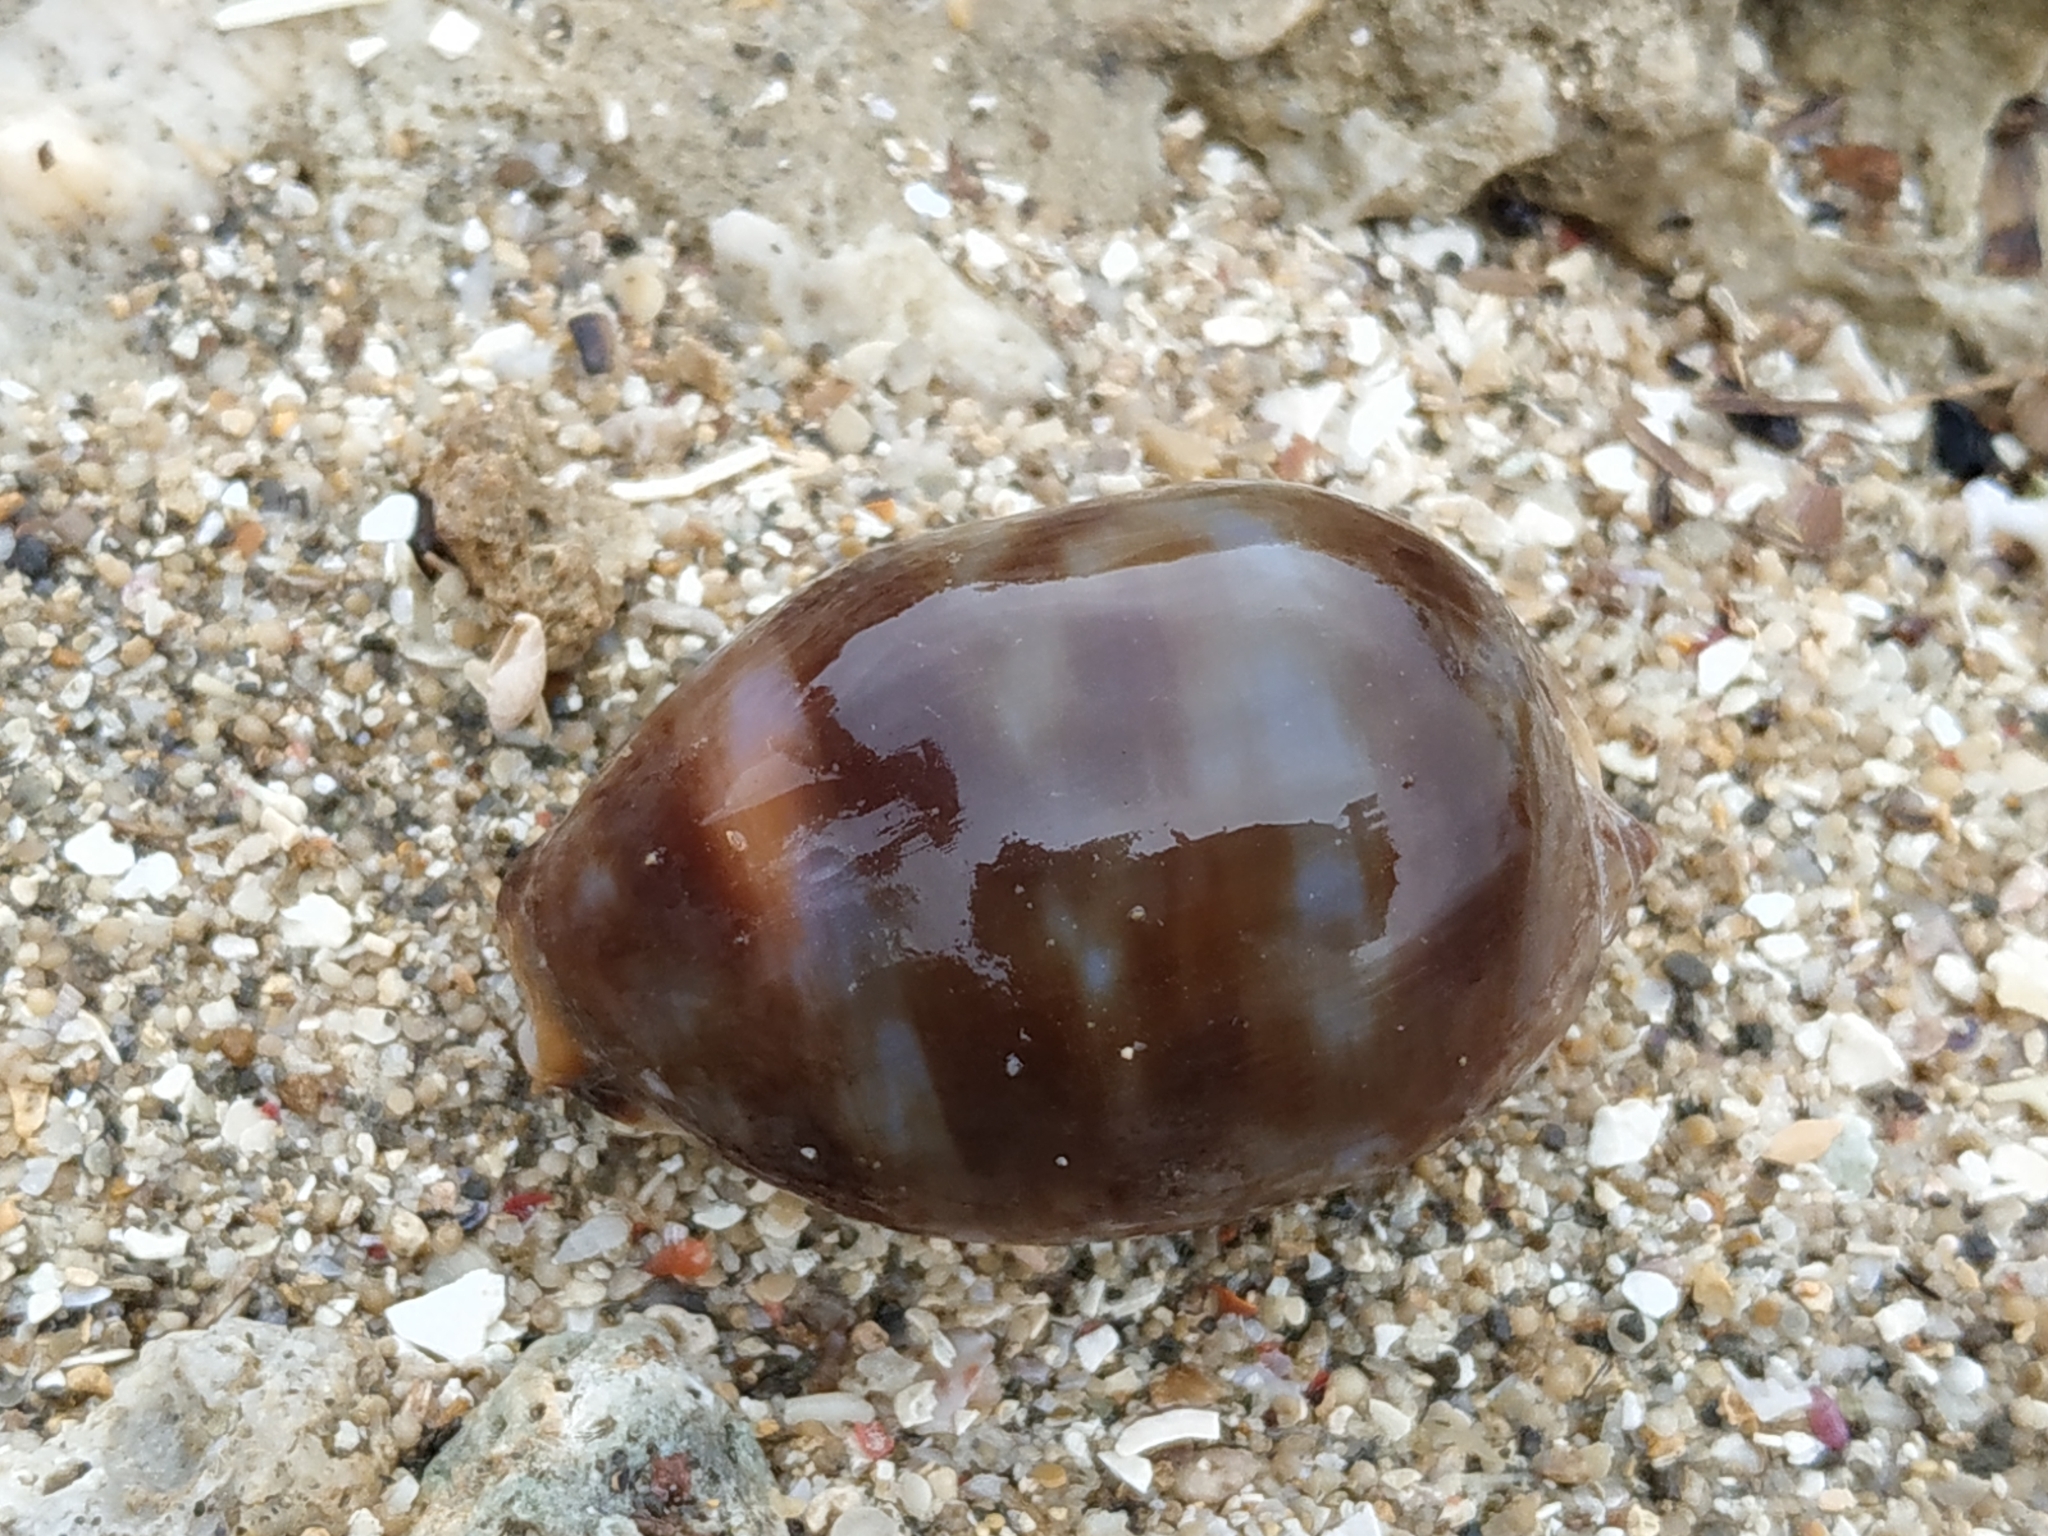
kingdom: Animalia
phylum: Mollusca
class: Gastropoda
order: Littorinimorpha
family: Cypraeidae
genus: Mauritia
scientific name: Mauritia arabica
